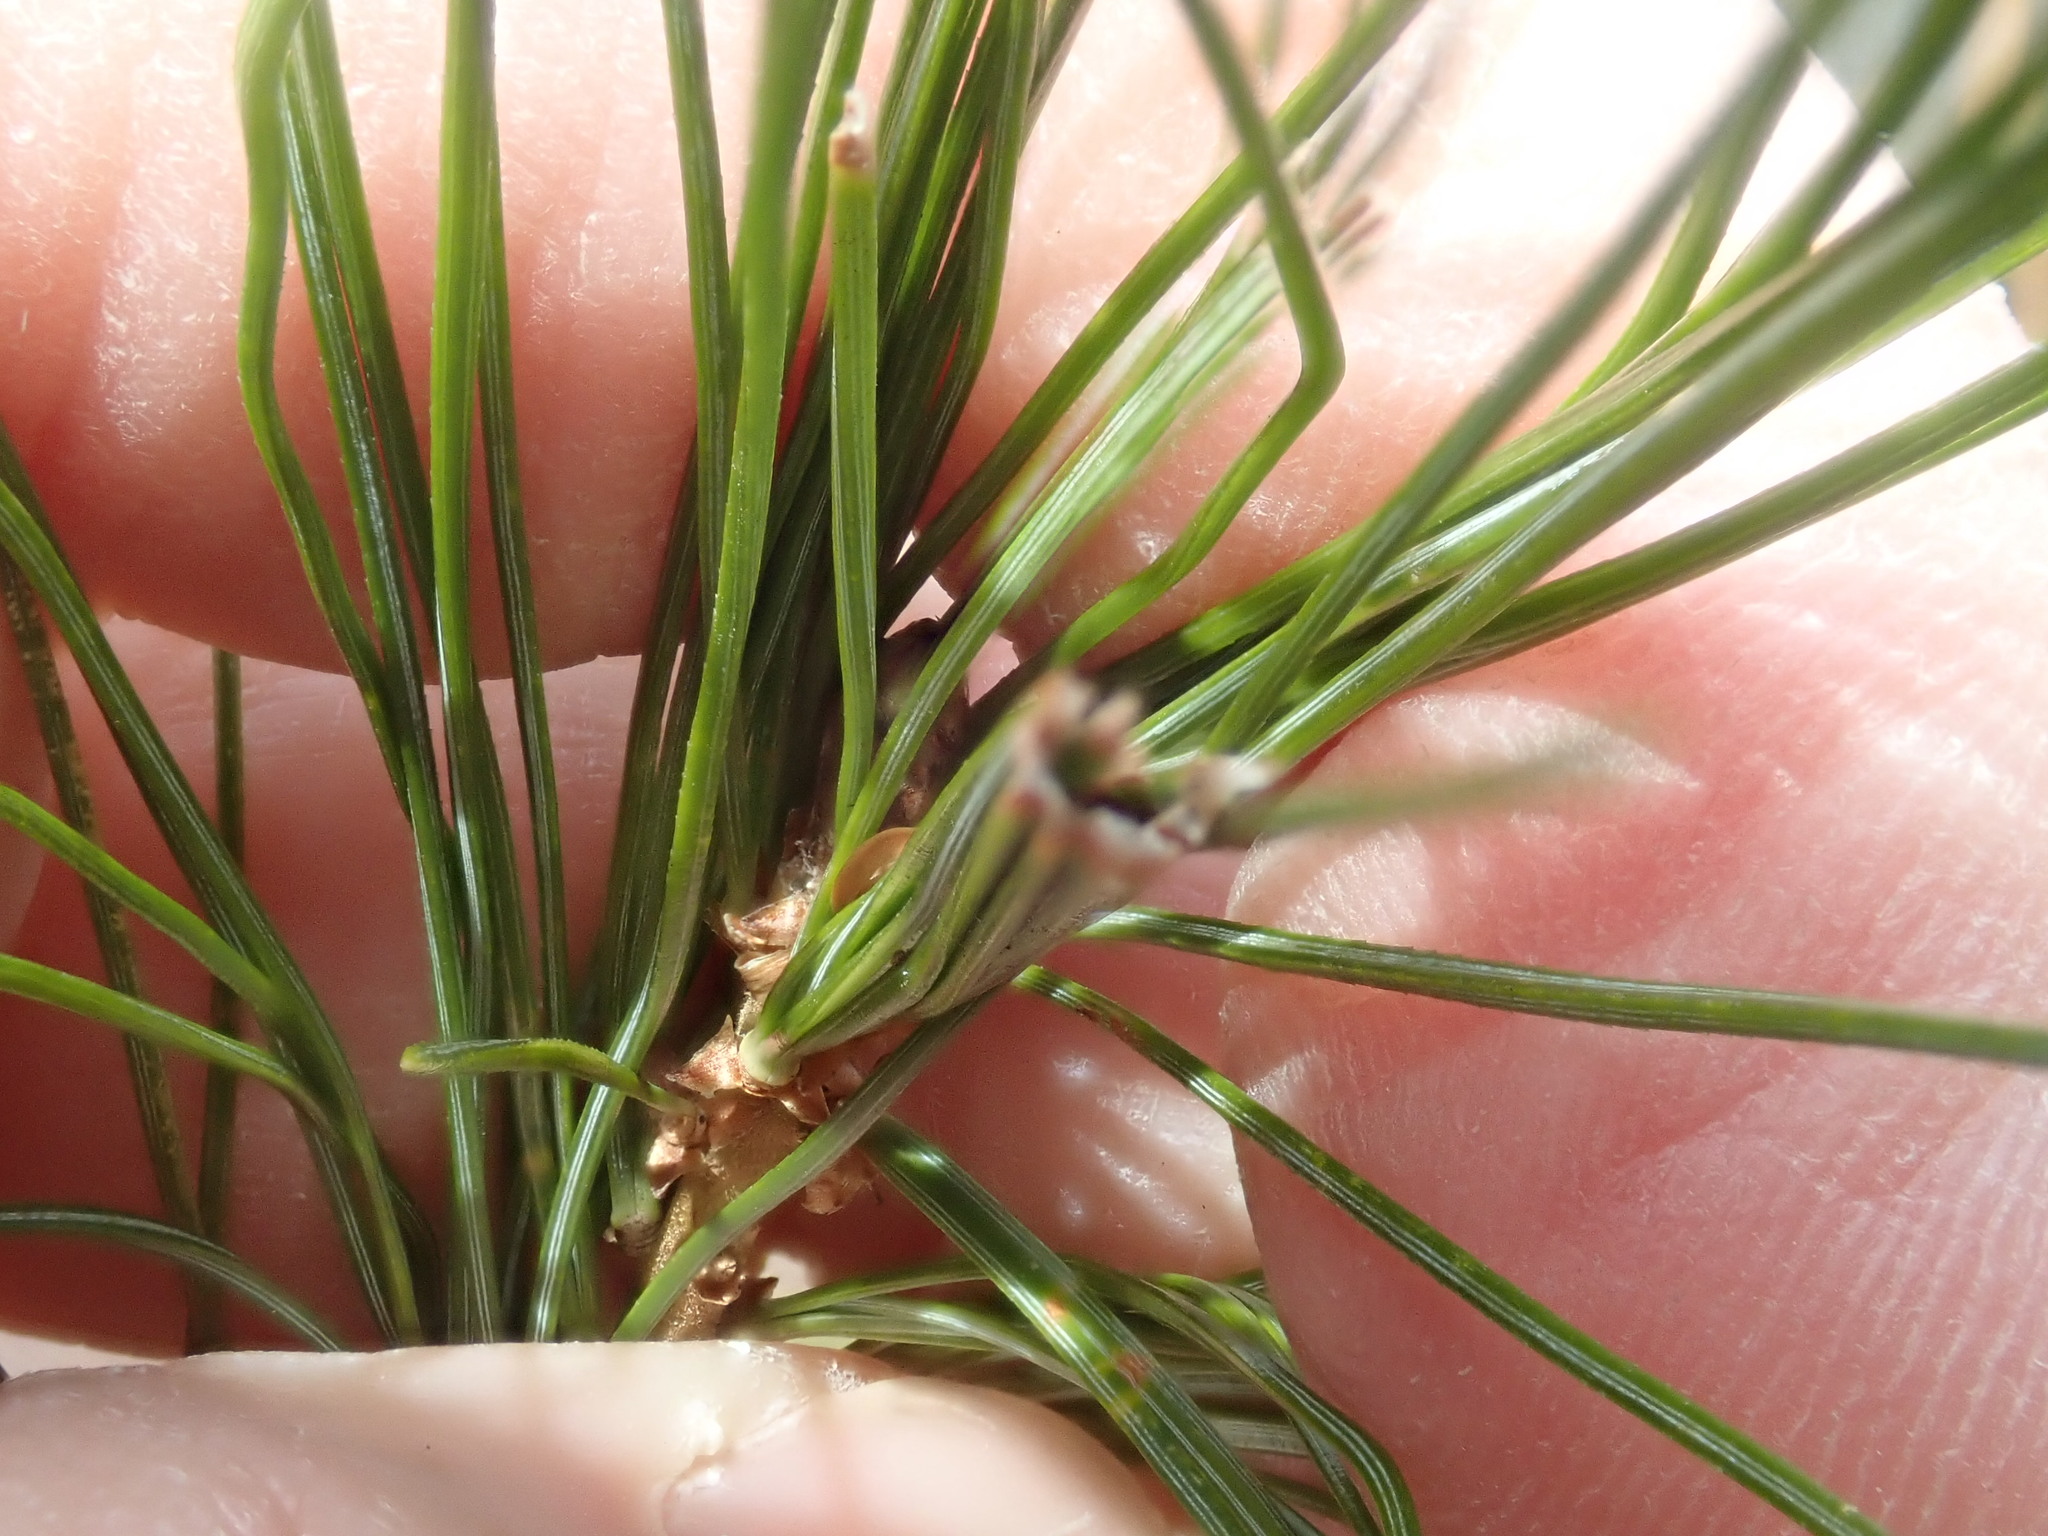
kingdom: Animalia
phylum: Arthropoda
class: Insecta
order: Lepidoptera
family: Tortricidae
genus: Argyrotaenia
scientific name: Argyrotaenia pinatubana
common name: Pine tube moth
